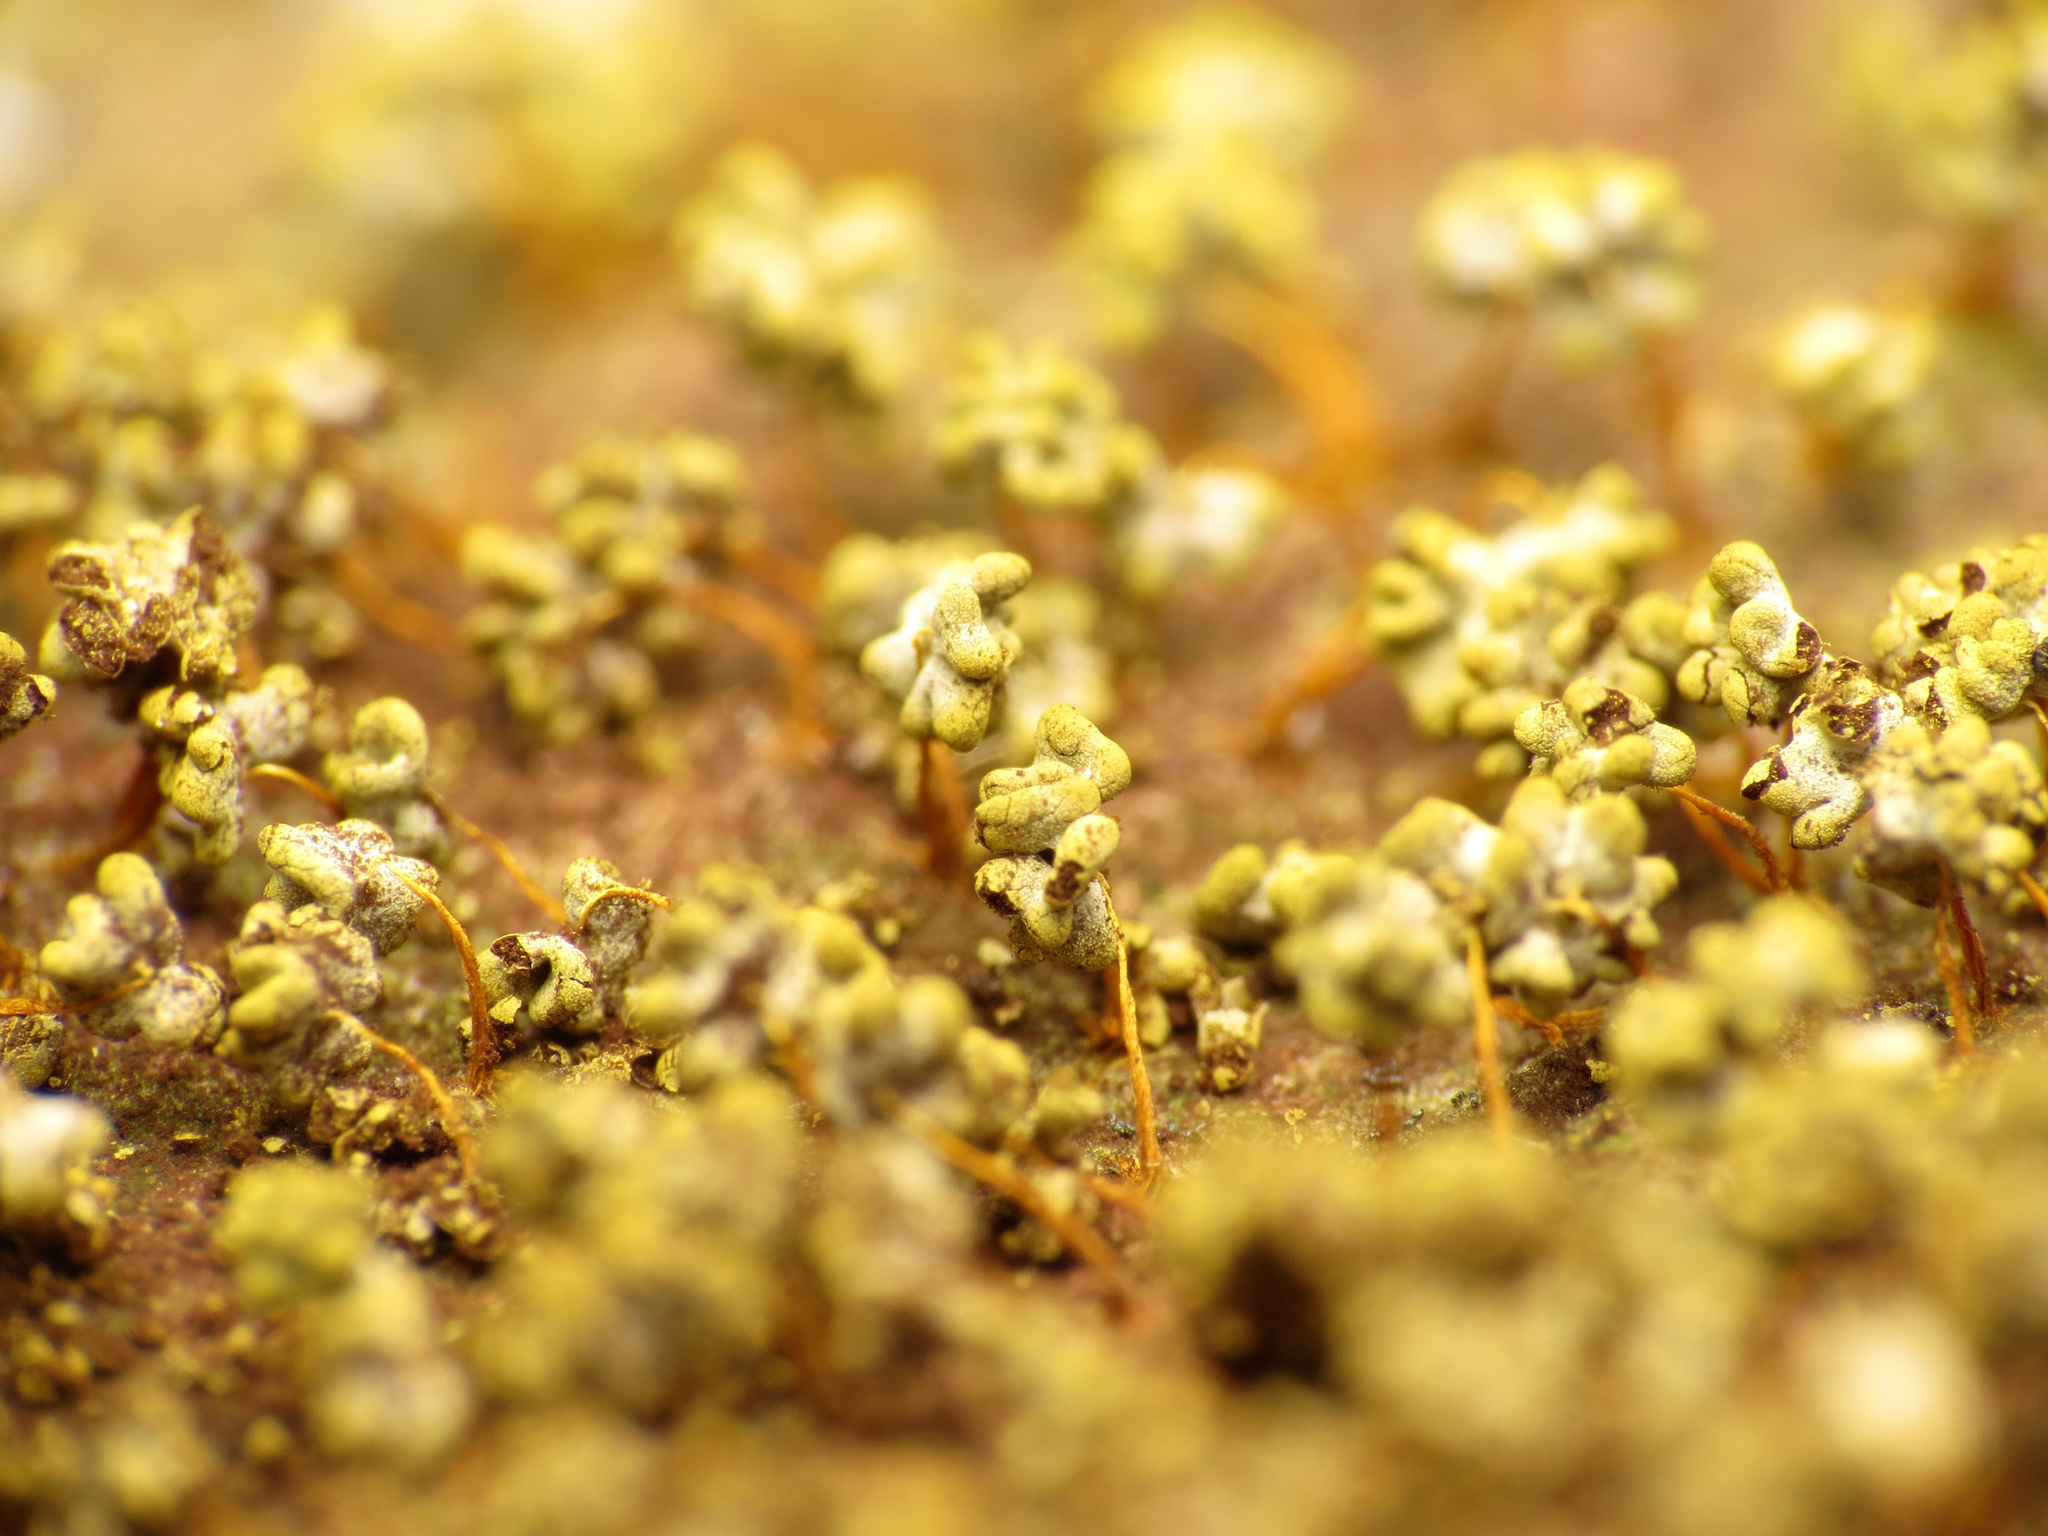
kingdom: Protozoa
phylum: Mycetozoa
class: Myxomycetes
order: Physarales
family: Physaraceae
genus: Physarum
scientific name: Physarum polycephalum
